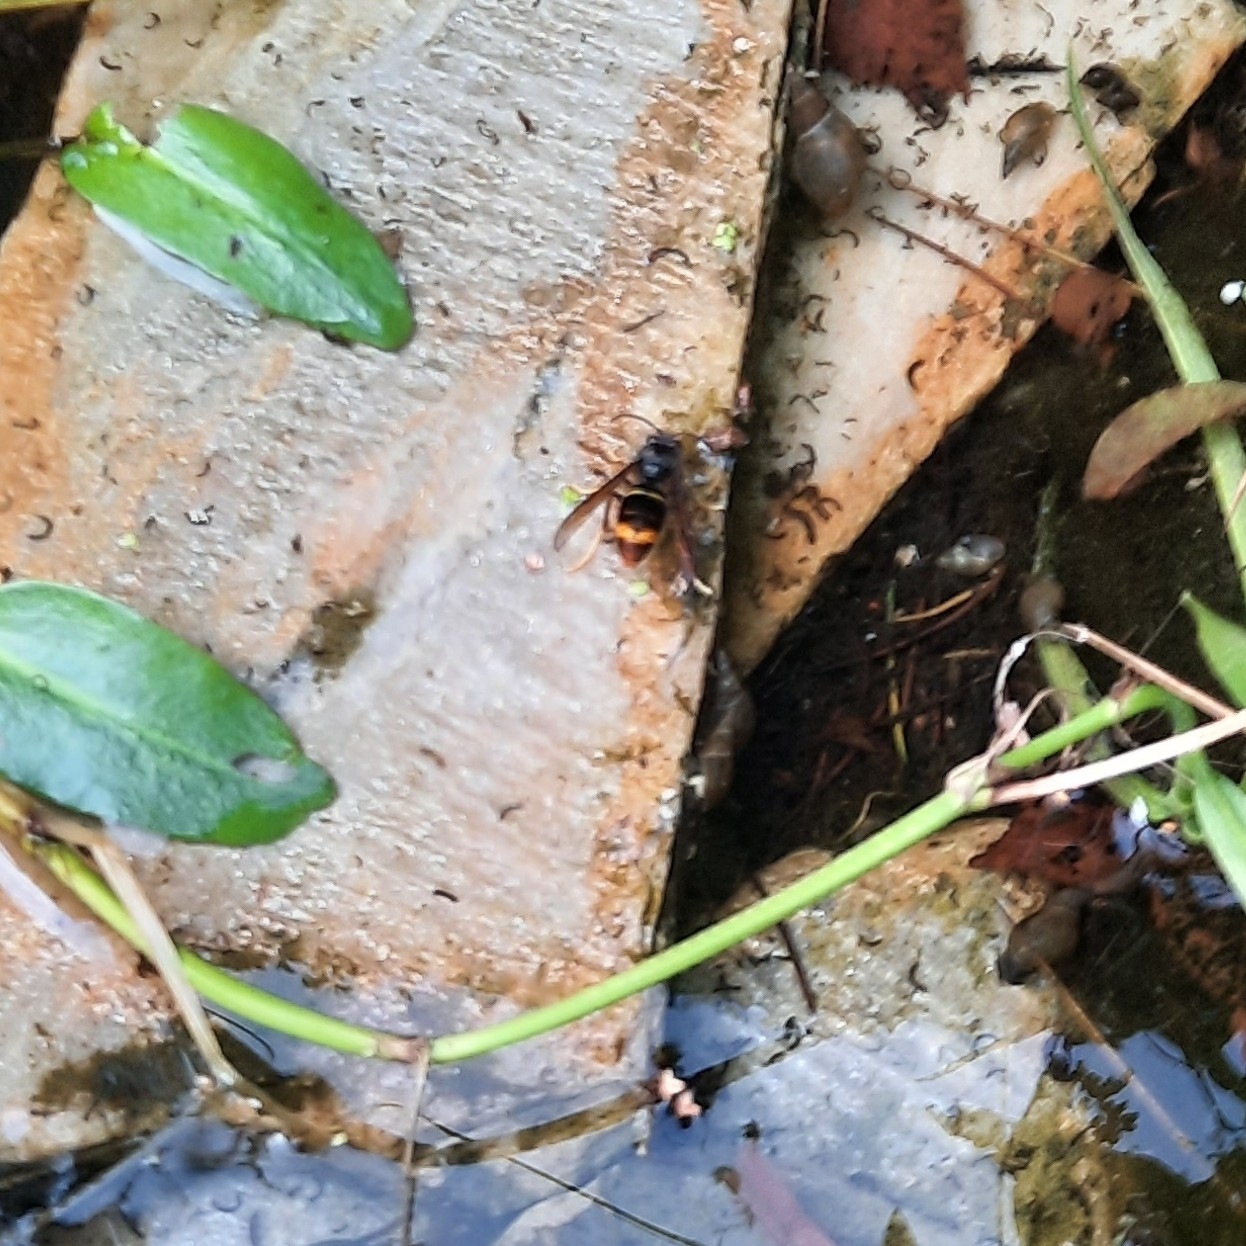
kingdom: Animalia
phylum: Arthropoda
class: Insecta
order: Hymenoptera
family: Vespidae
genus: Vespa
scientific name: Vespa velutina
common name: Asian hornet
